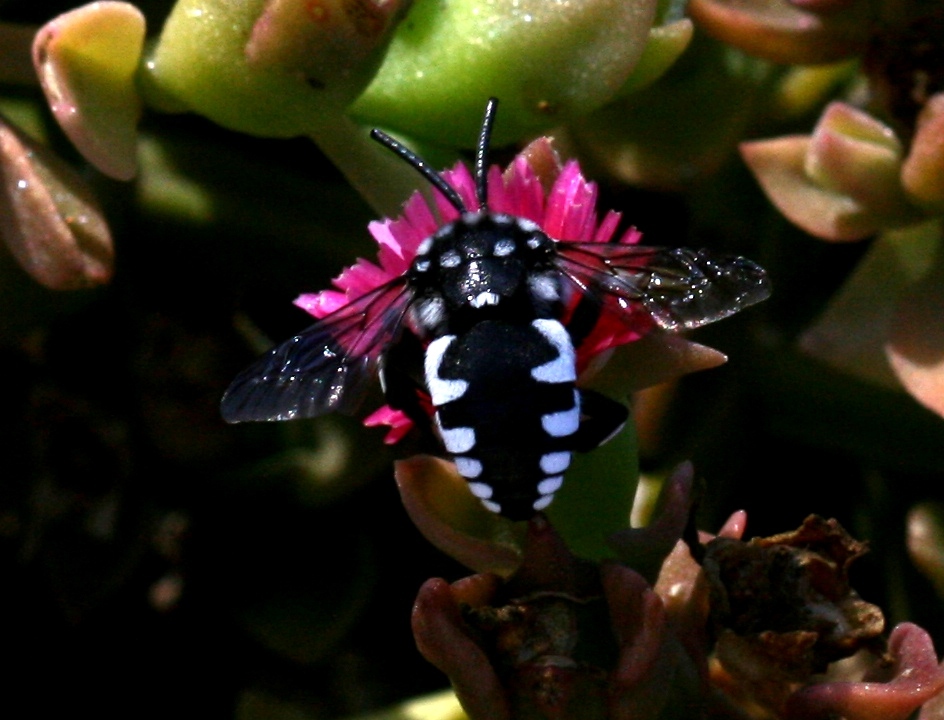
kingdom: Animalia
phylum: Arthropoda
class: Insecta
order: Hymenoptera
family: Apidae
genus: Thyreus
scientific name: Thyreus histrionicus
